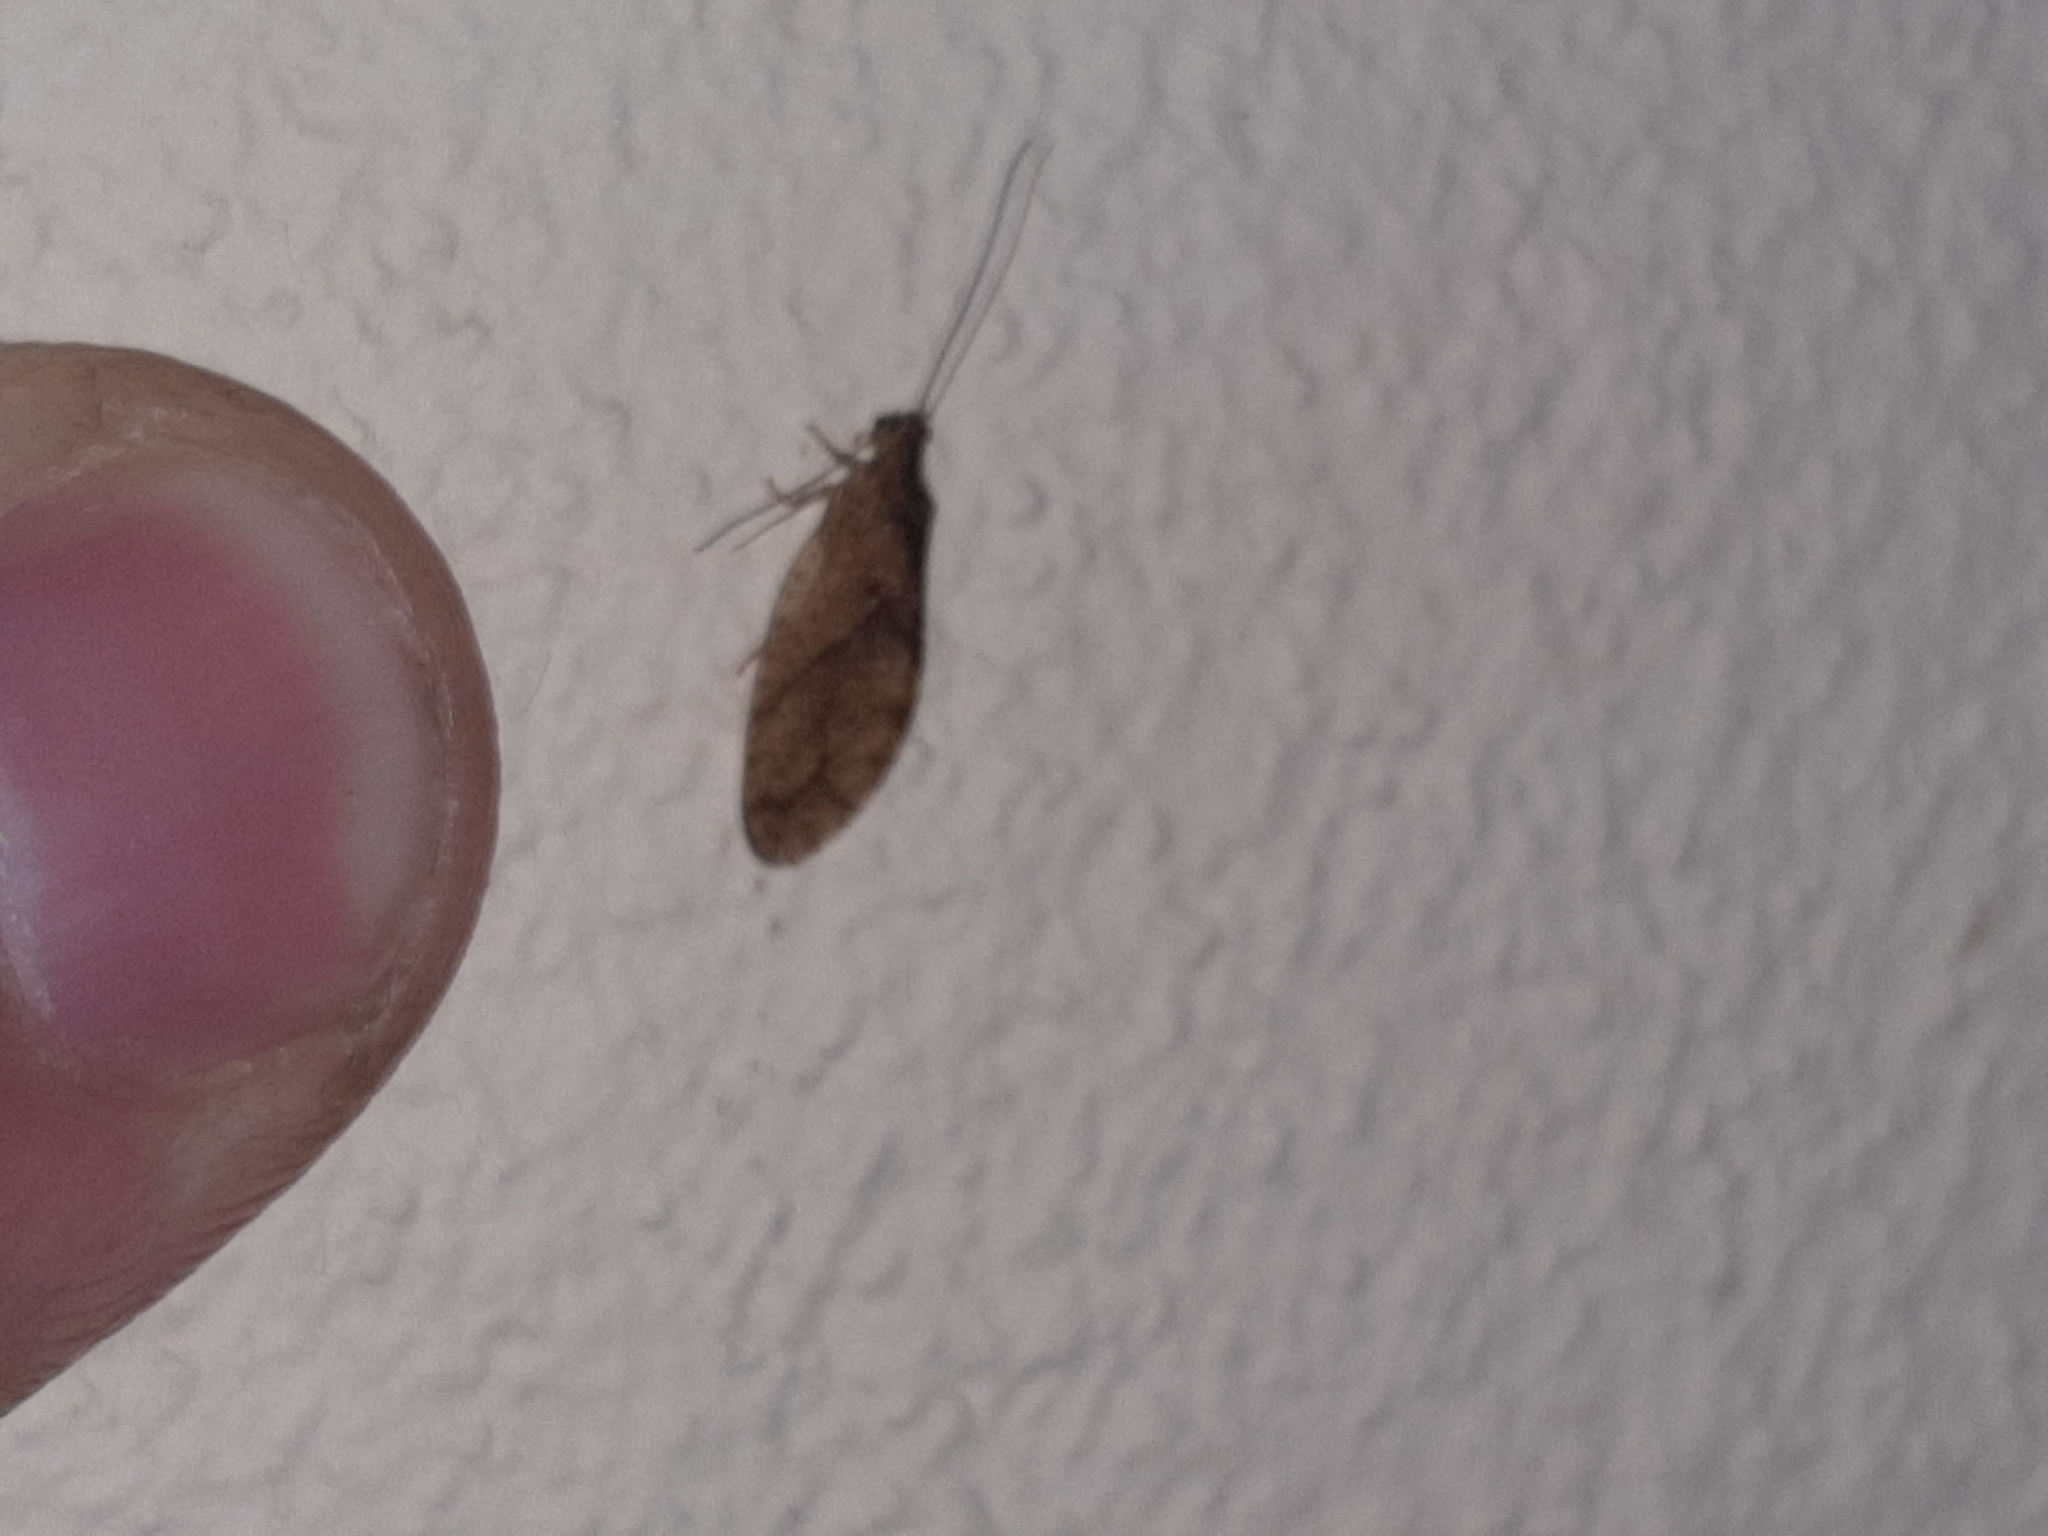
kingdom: Animalia
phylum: Arthropoda
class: Insecta
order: Neuroptera
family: Hemerobiidae
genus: Nusalala
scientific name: Nusalala uncata
